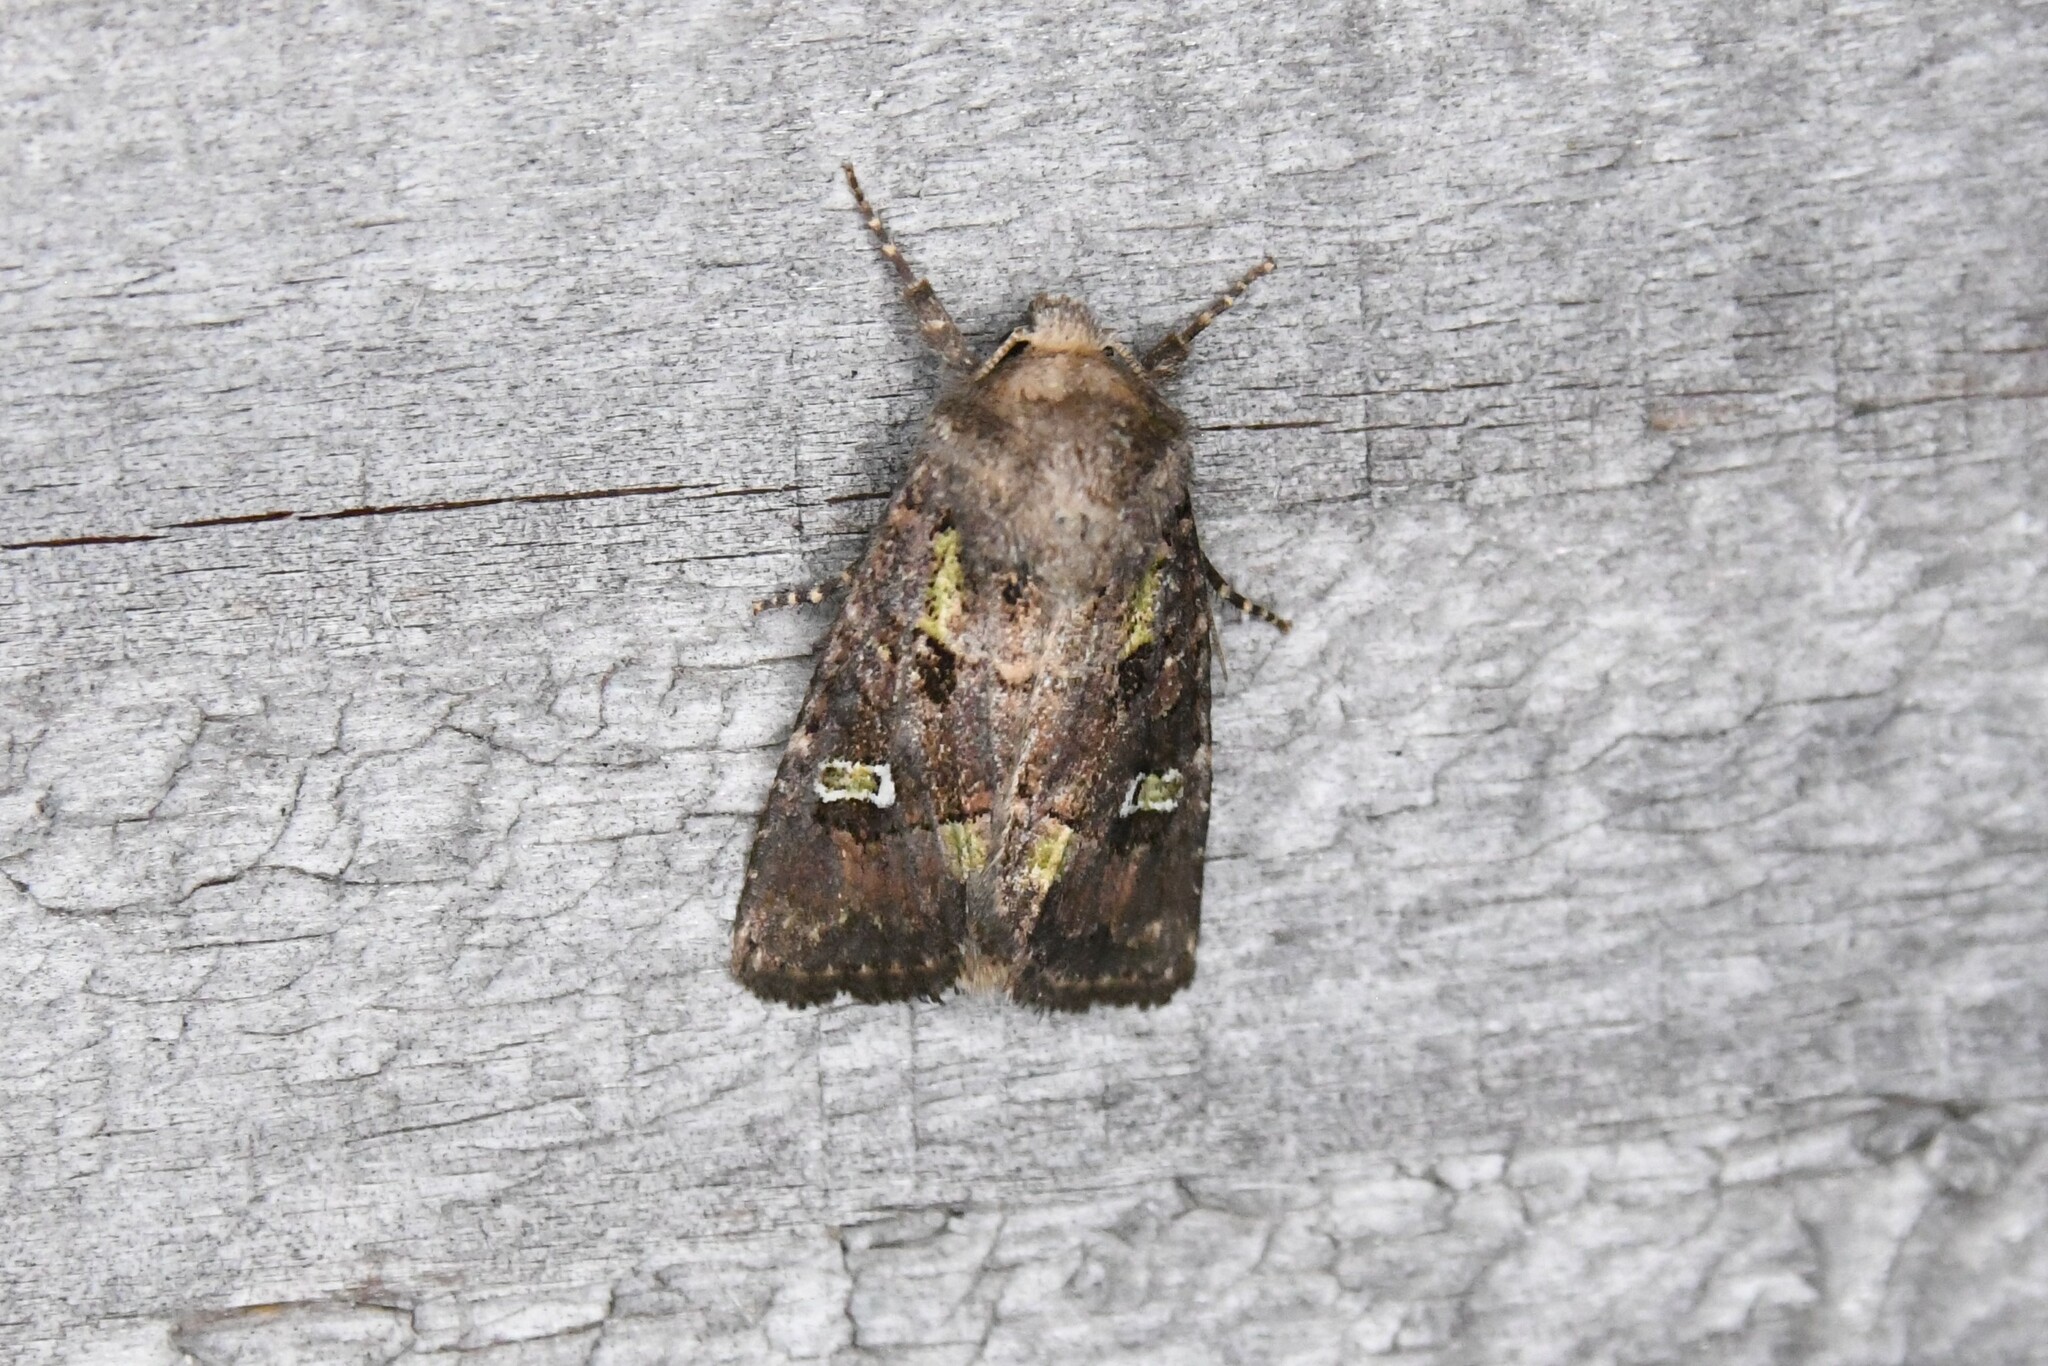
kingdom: Animalia
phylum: Arthropoda
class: Insecta
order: Lepidoptera
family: Noctuidae
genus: Lacinipolia
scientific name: Lacinipolia renigera
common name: Kidney-spotted minor
